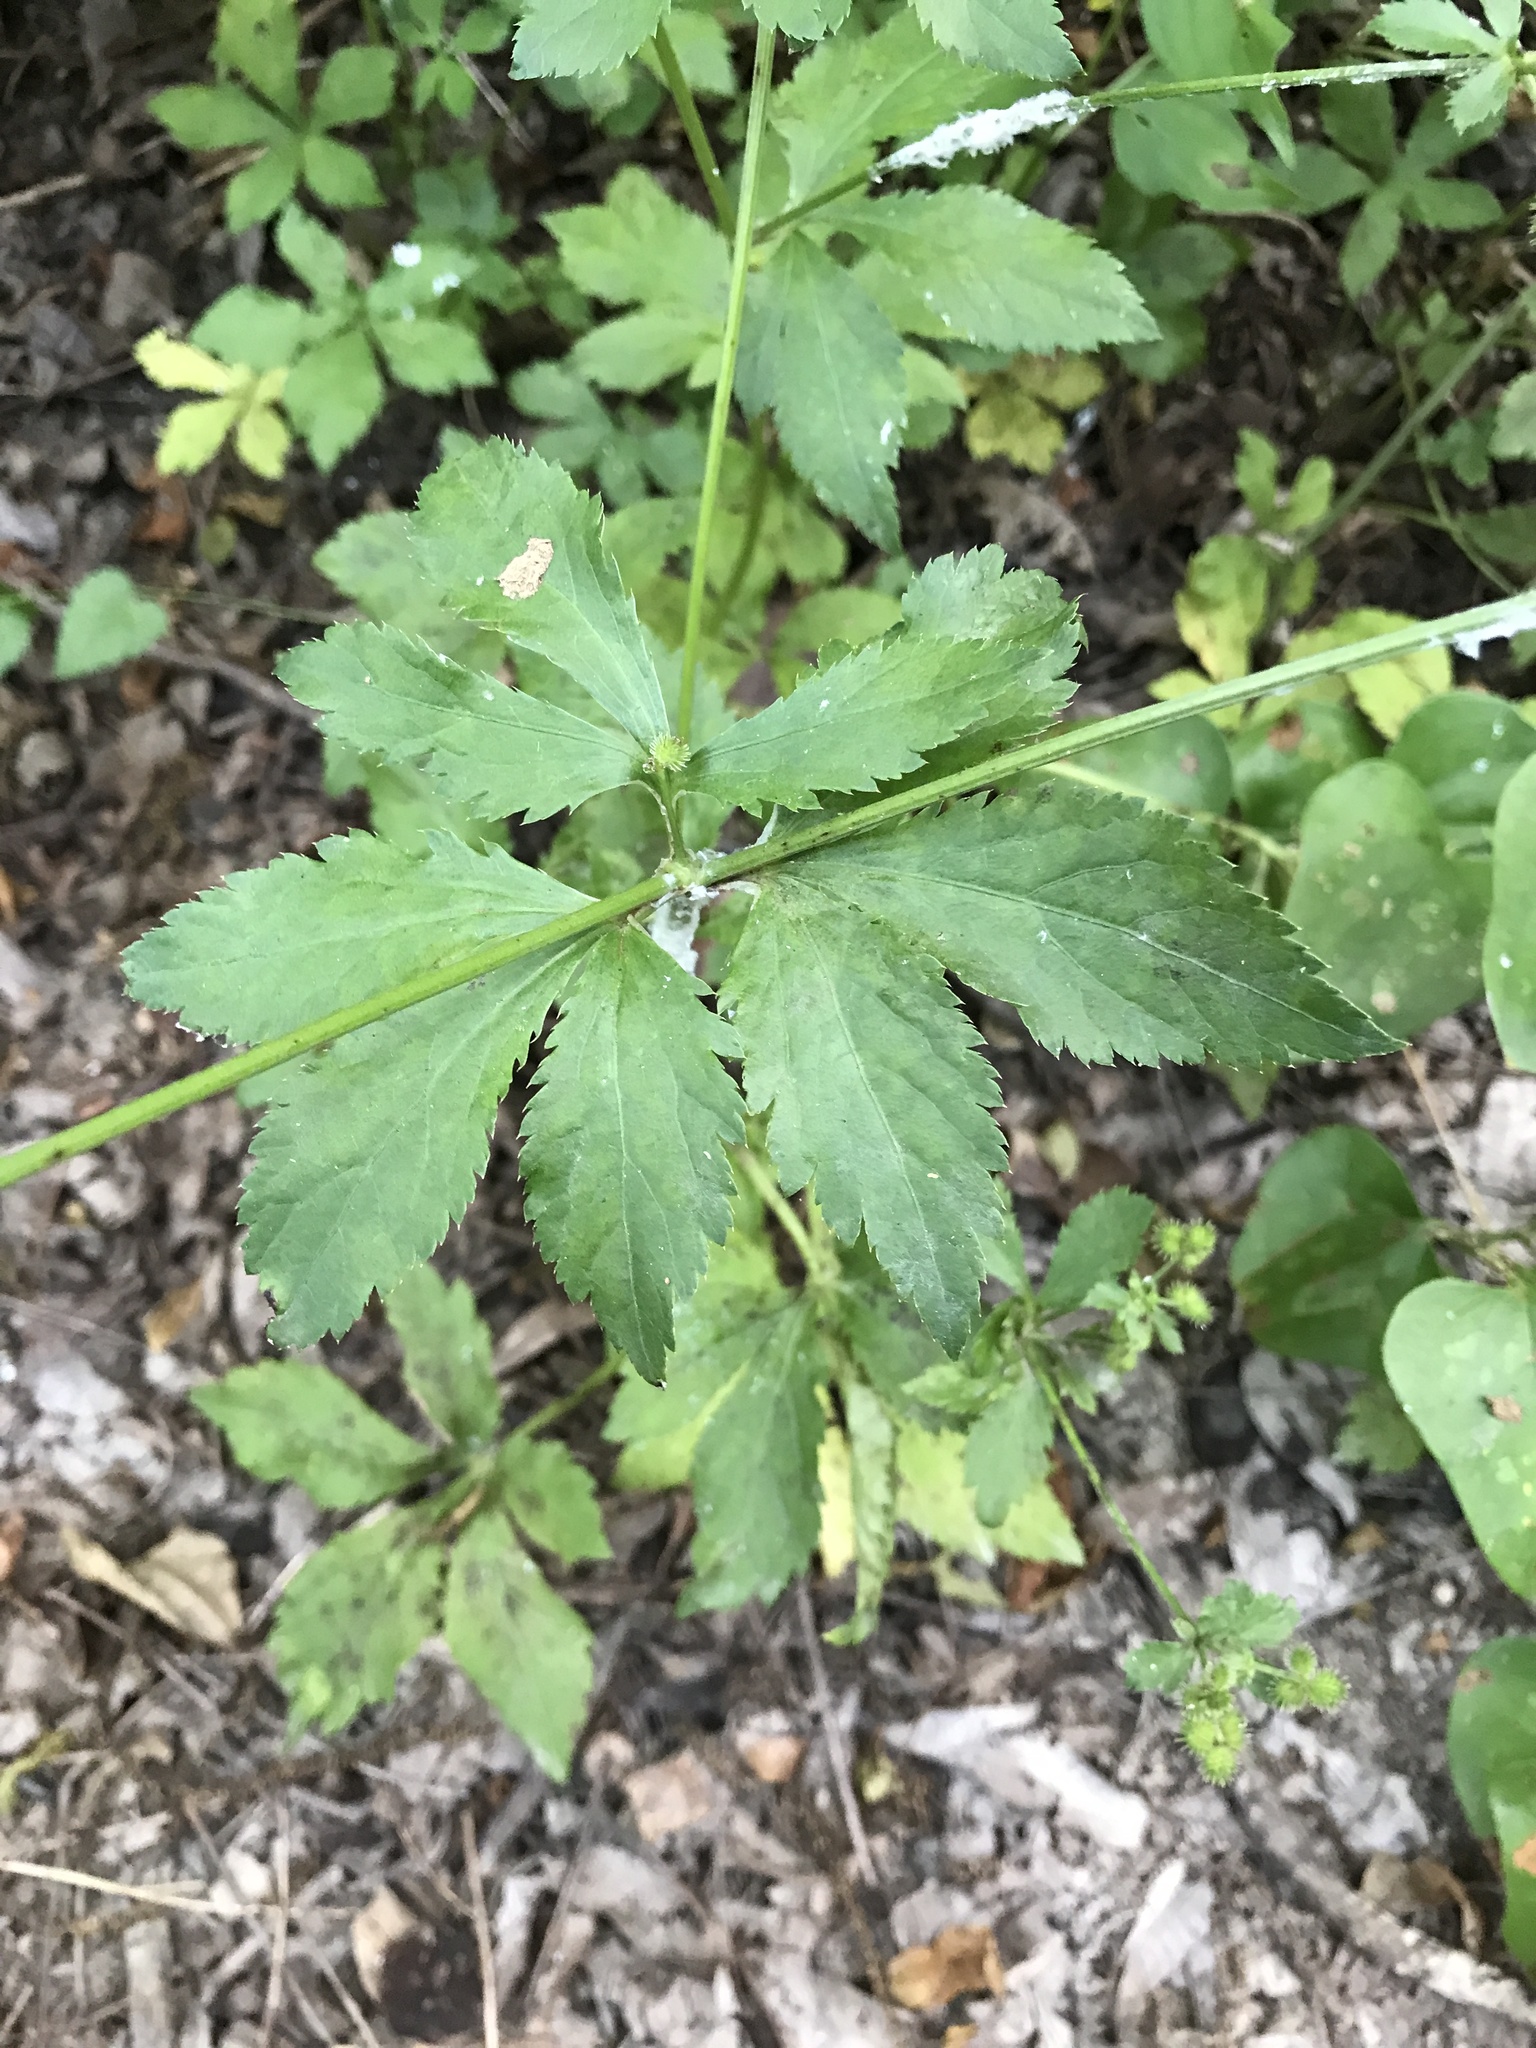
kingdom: Plantae
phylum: Tracheophyta
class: Magnoliopsida
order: Apiales
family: Apiaceae
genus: Sanicula
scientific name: Sanicula canadensis
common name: Canada sanicle
